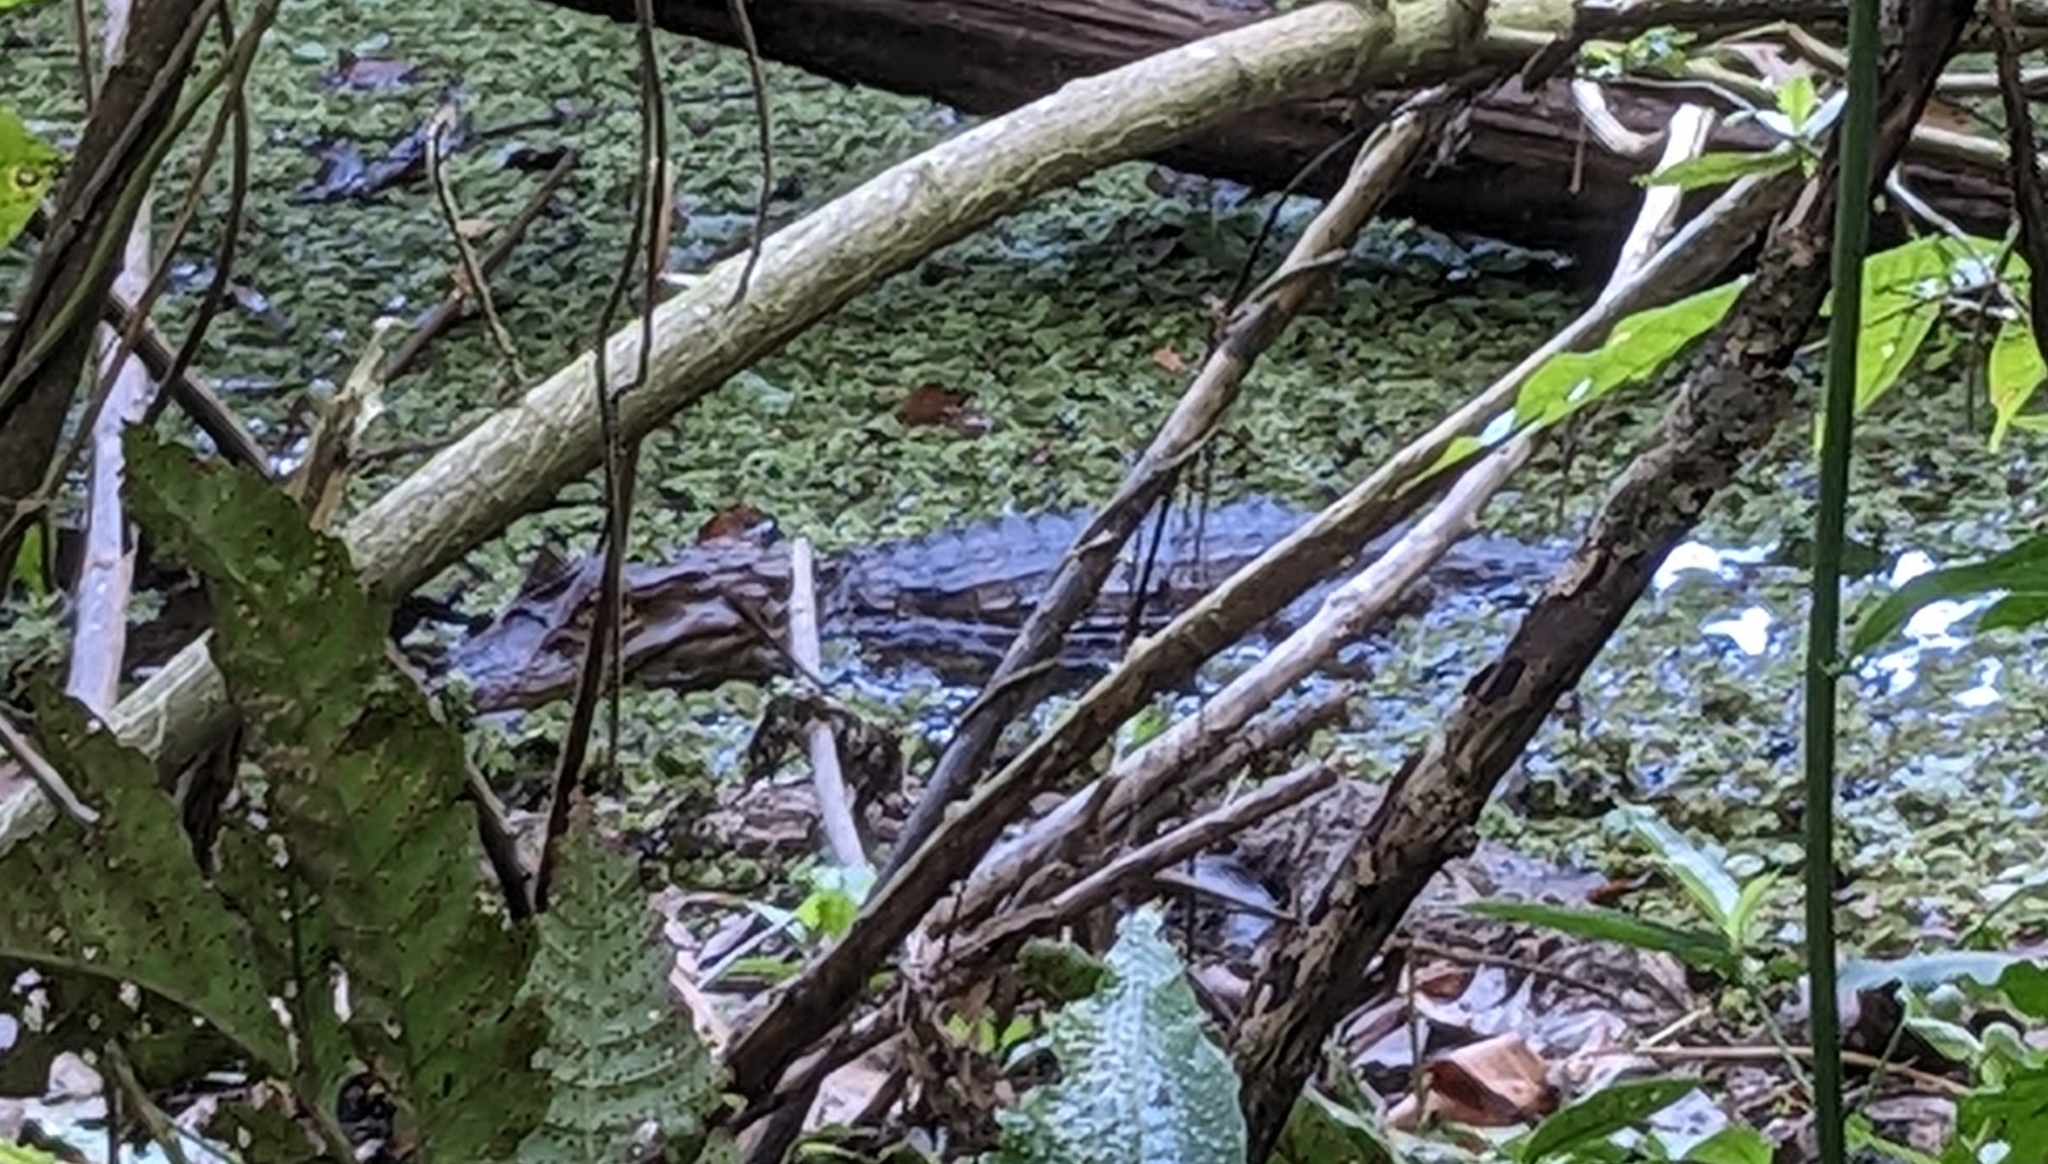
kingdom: Animalia
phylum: Chordata
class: Crocodylia
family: Alligatoridae
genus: Caiman
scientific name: Caiman crocodilus
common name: Common caiman
